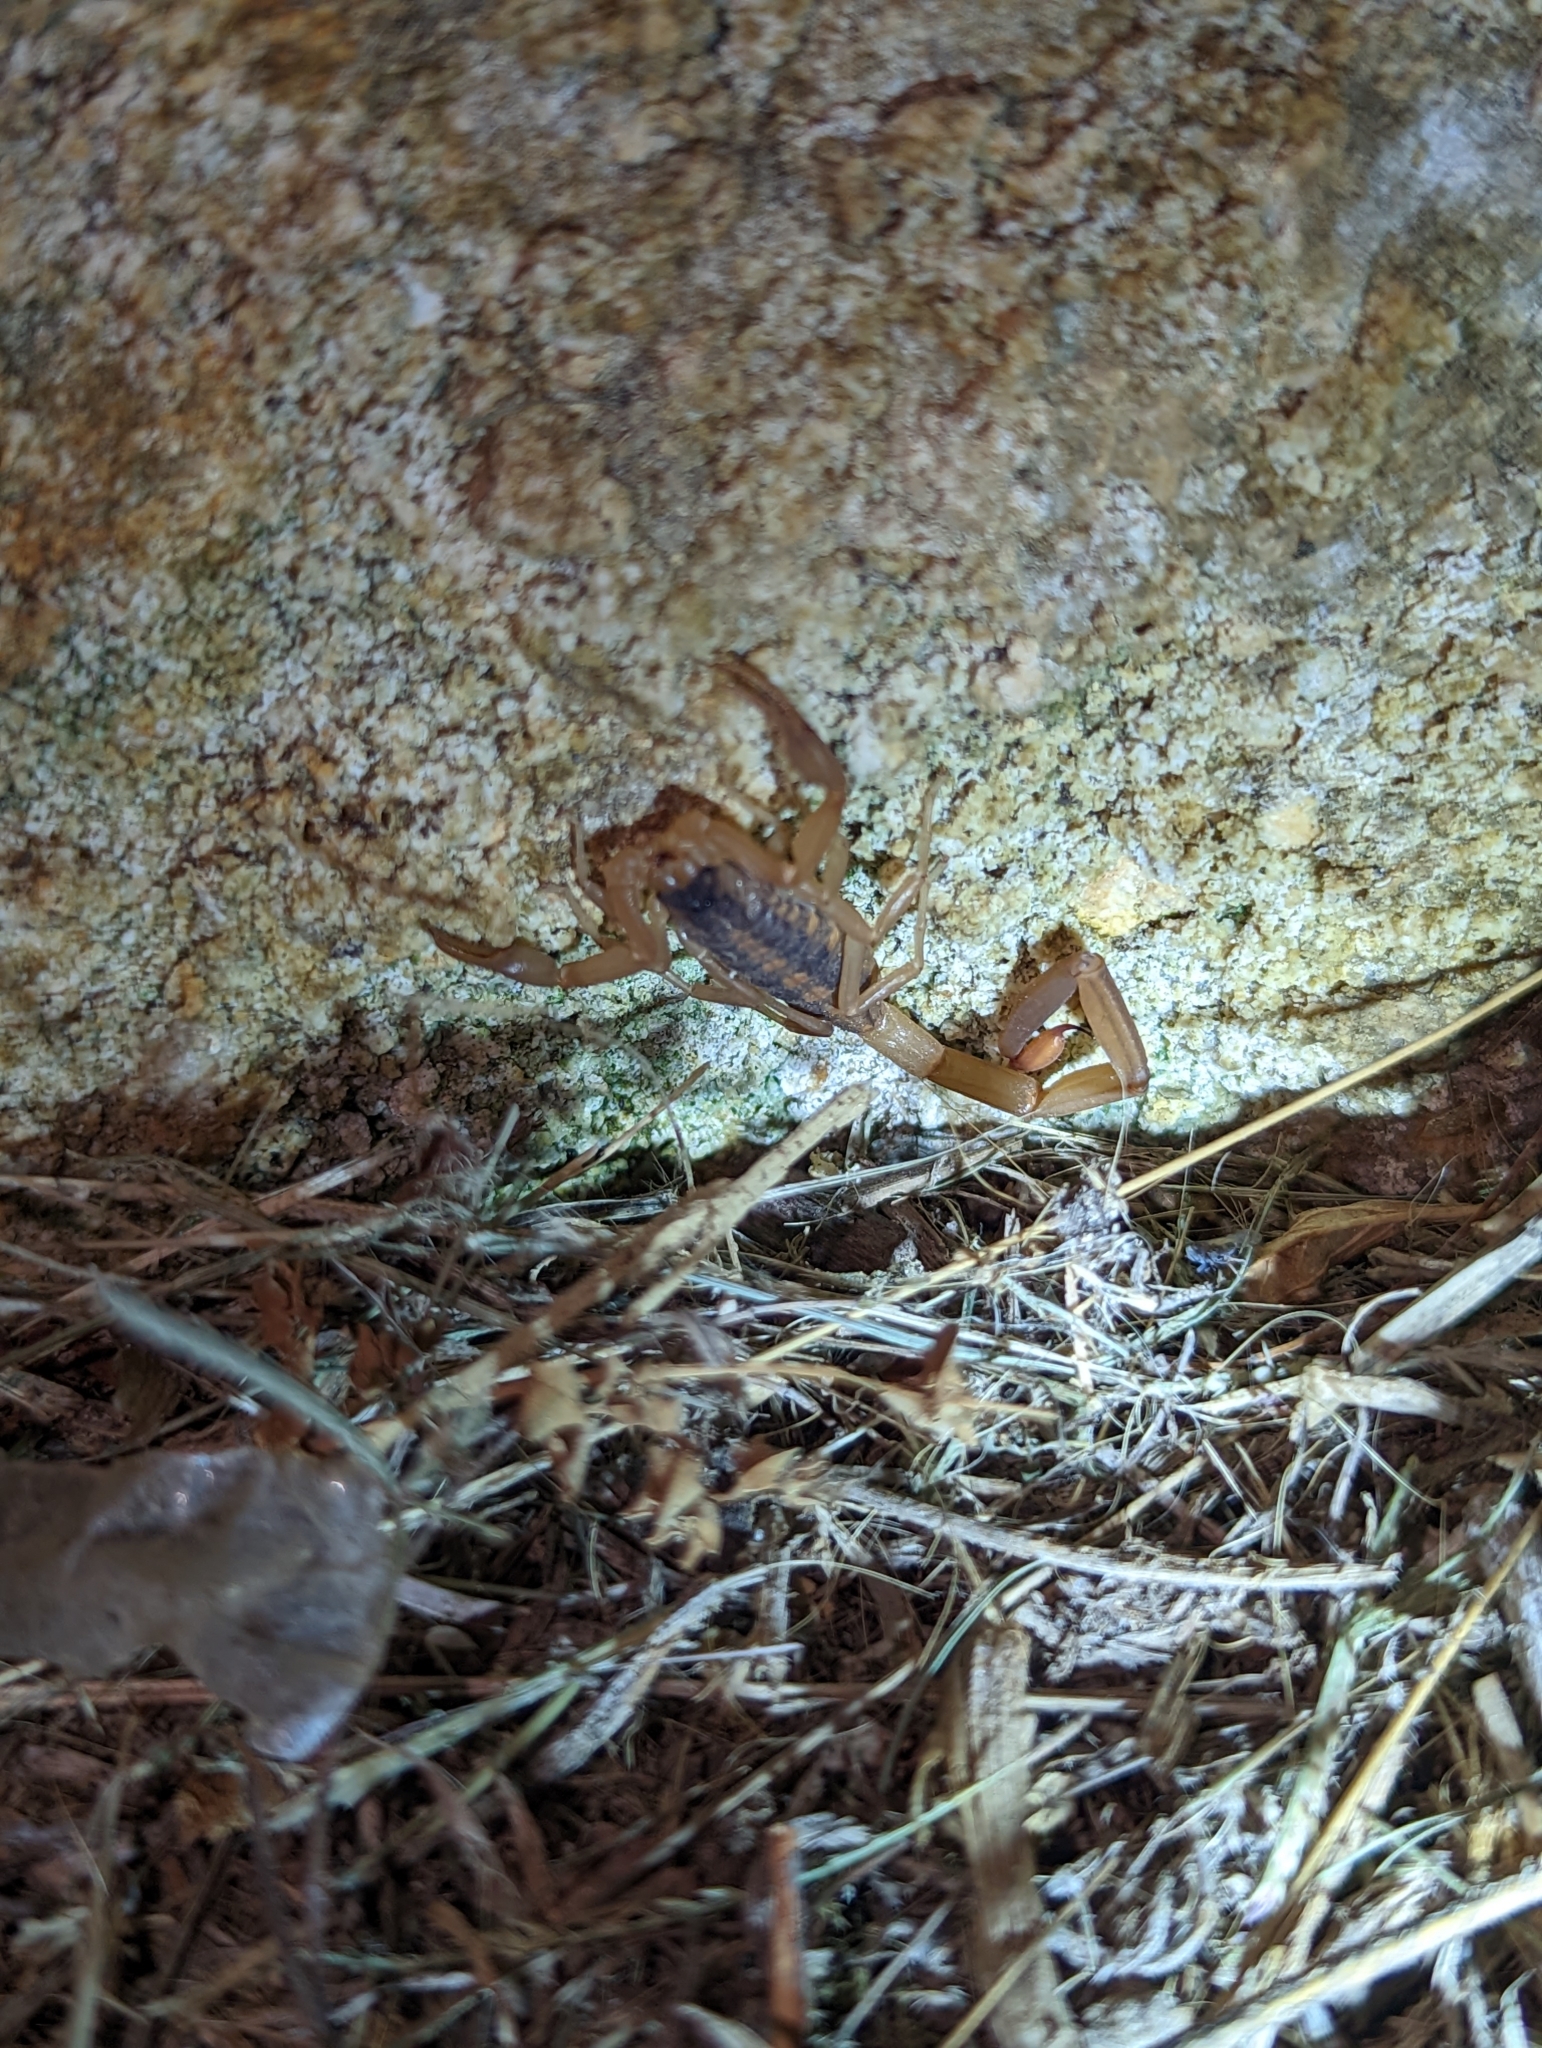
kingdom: Animalia
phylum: Arthropoda
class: Arachnida
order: Scorpiones
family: Buthidae
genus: Centruroides
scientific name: Centruroides vittatus
